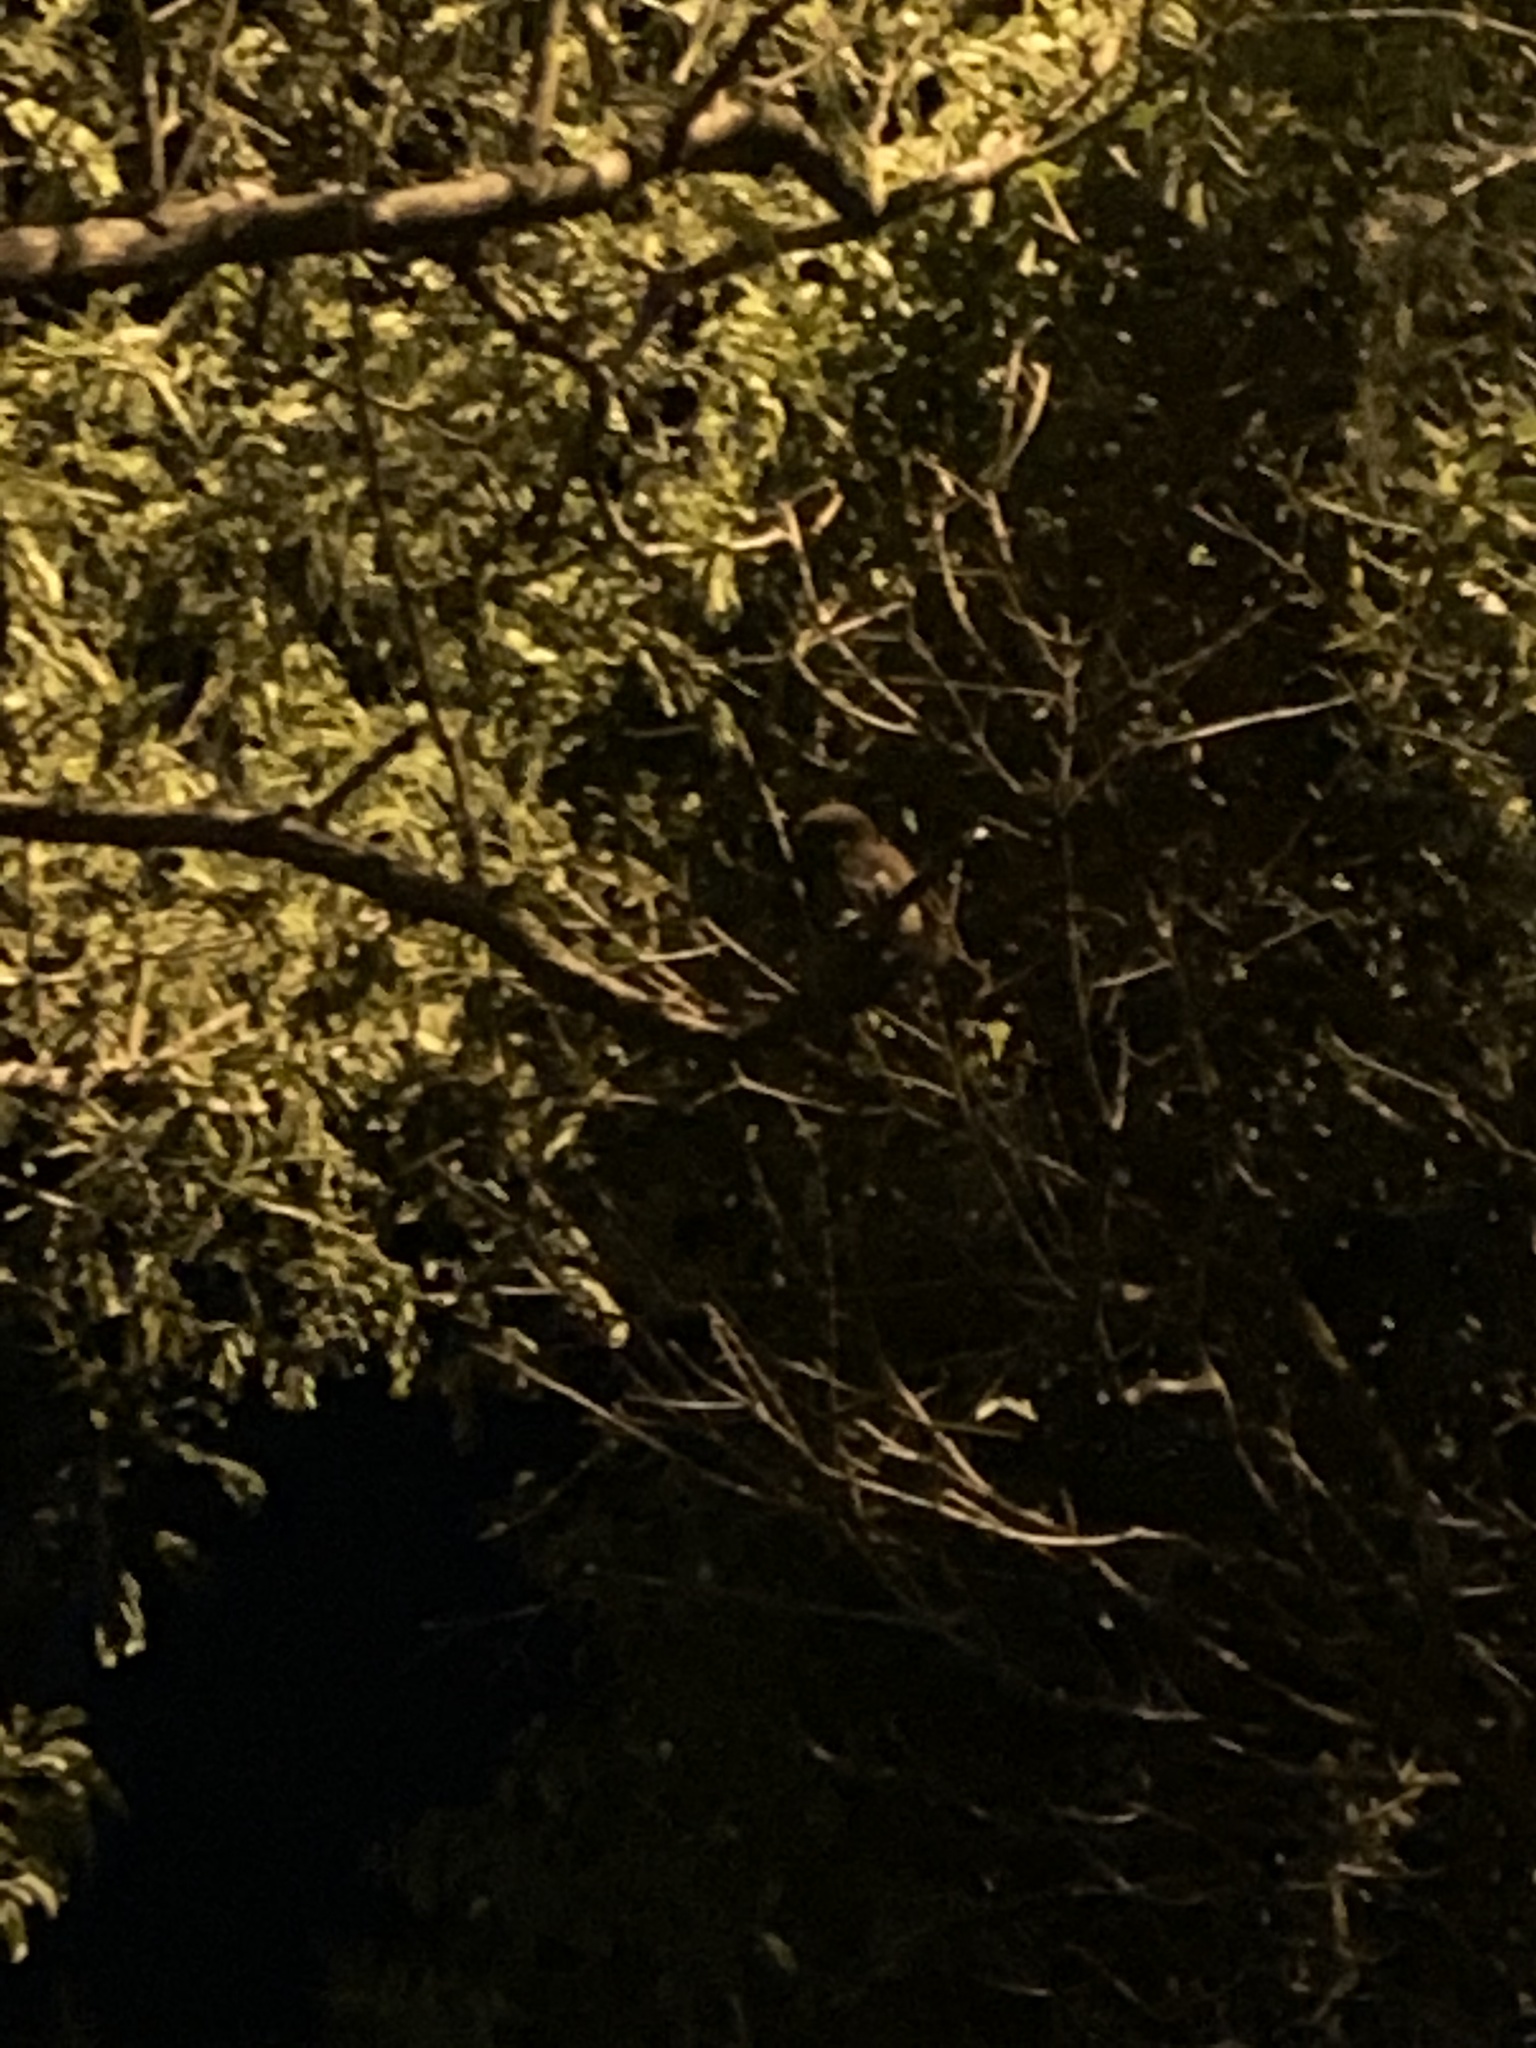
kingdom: Animalia
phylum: Chordata
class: Aves
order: Strigiformes
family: Strigidae
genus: Glaucidium
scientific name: Glaucidium brasilianum
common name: Ferruginous pygmy-owl
